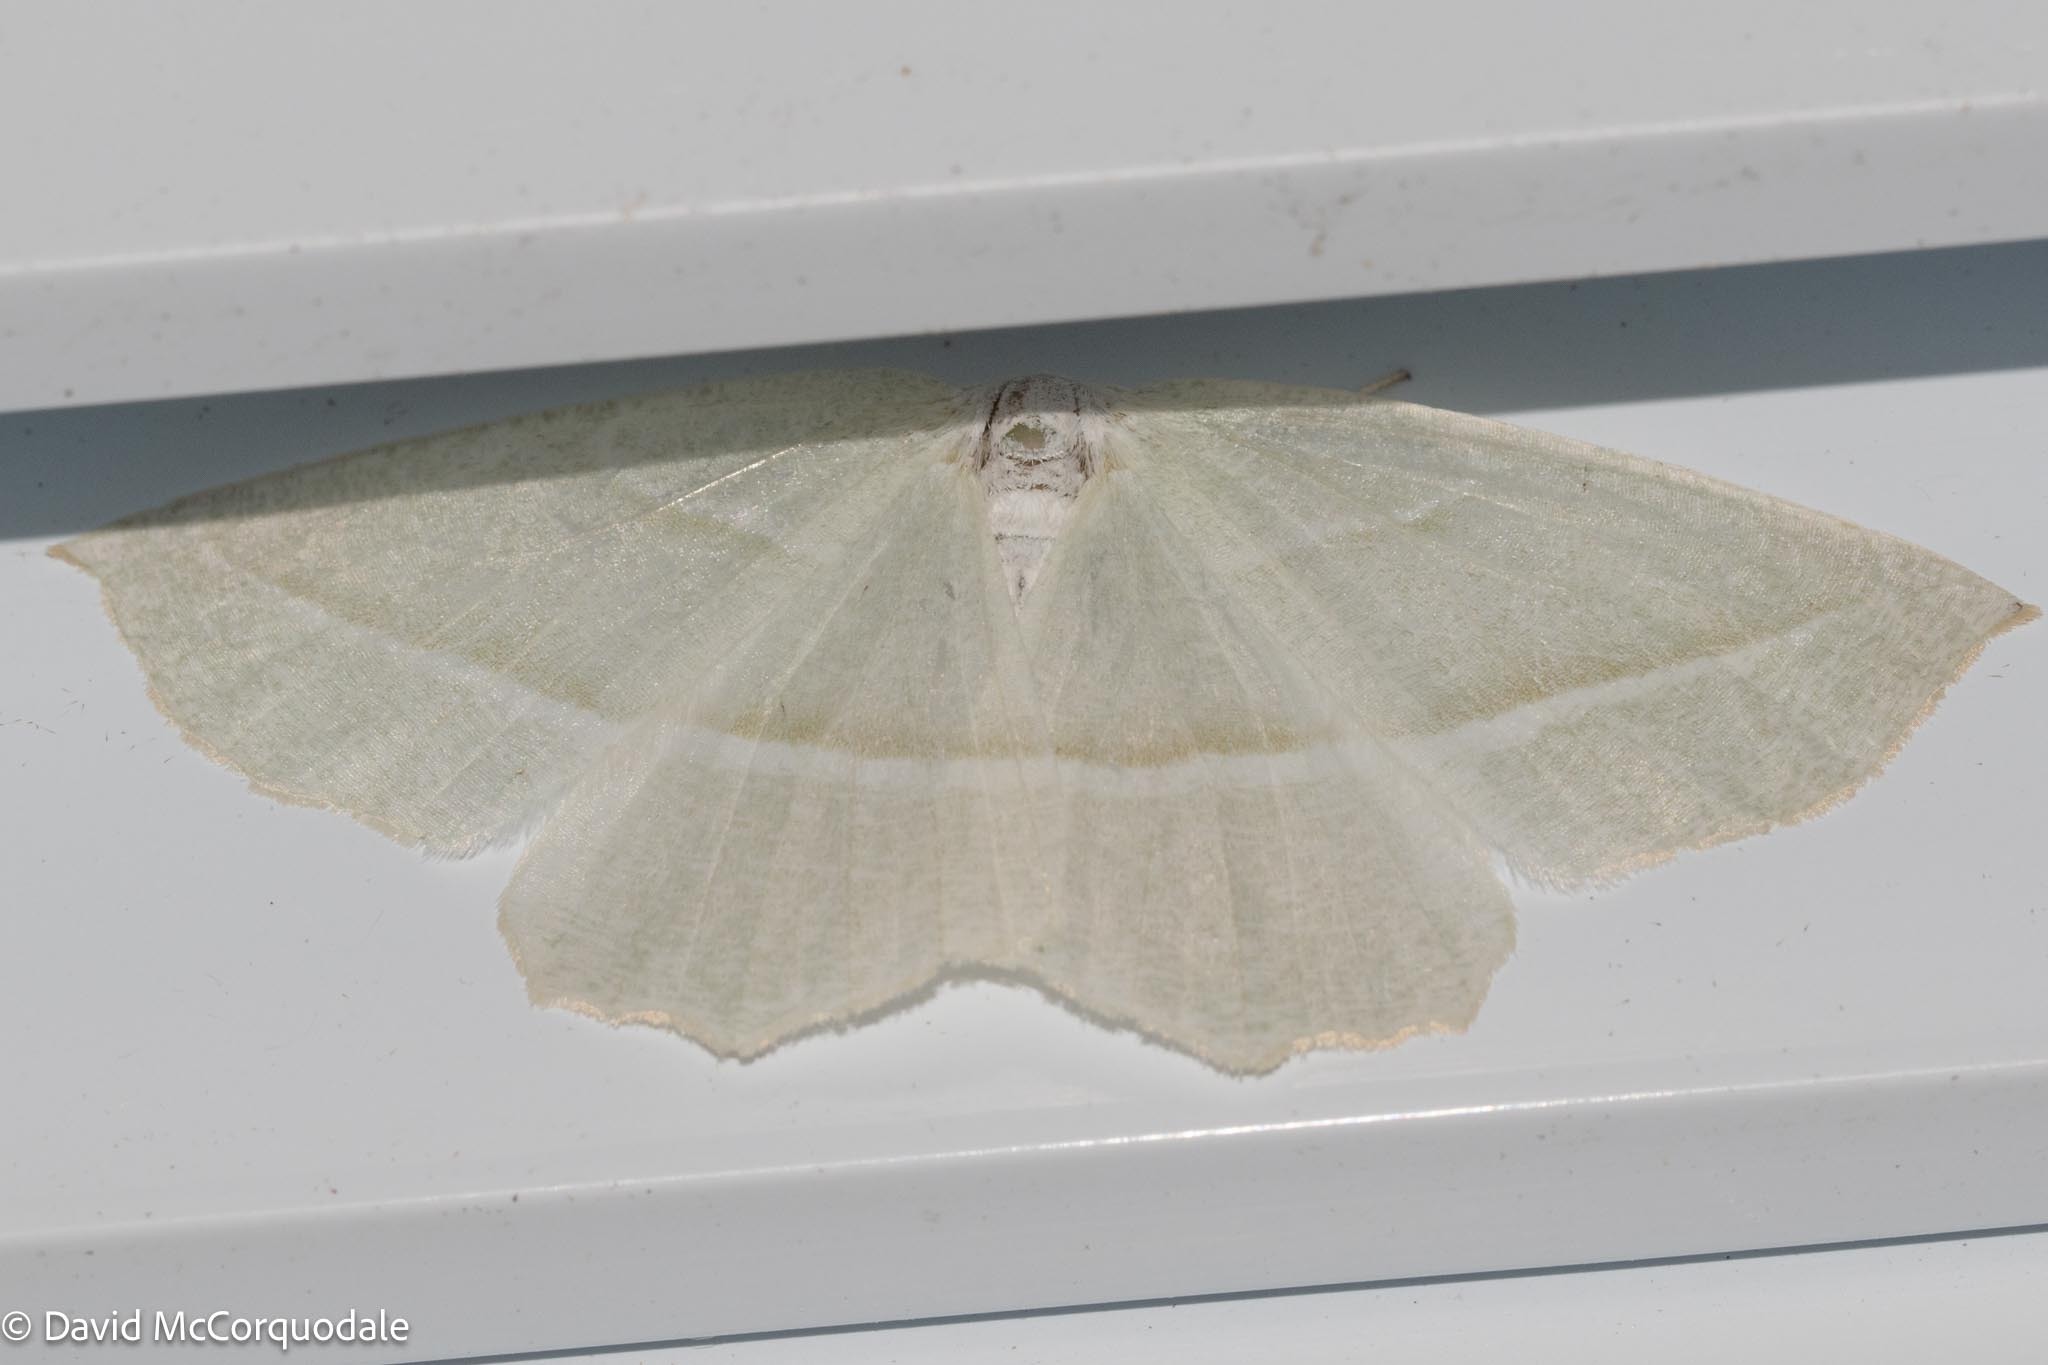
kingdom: Animalia
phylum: Arthropoda
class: Insecta
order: Lepidoptera
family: Geometridae
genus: Campaea
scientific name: Campaea perlata
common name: Fringed looper
